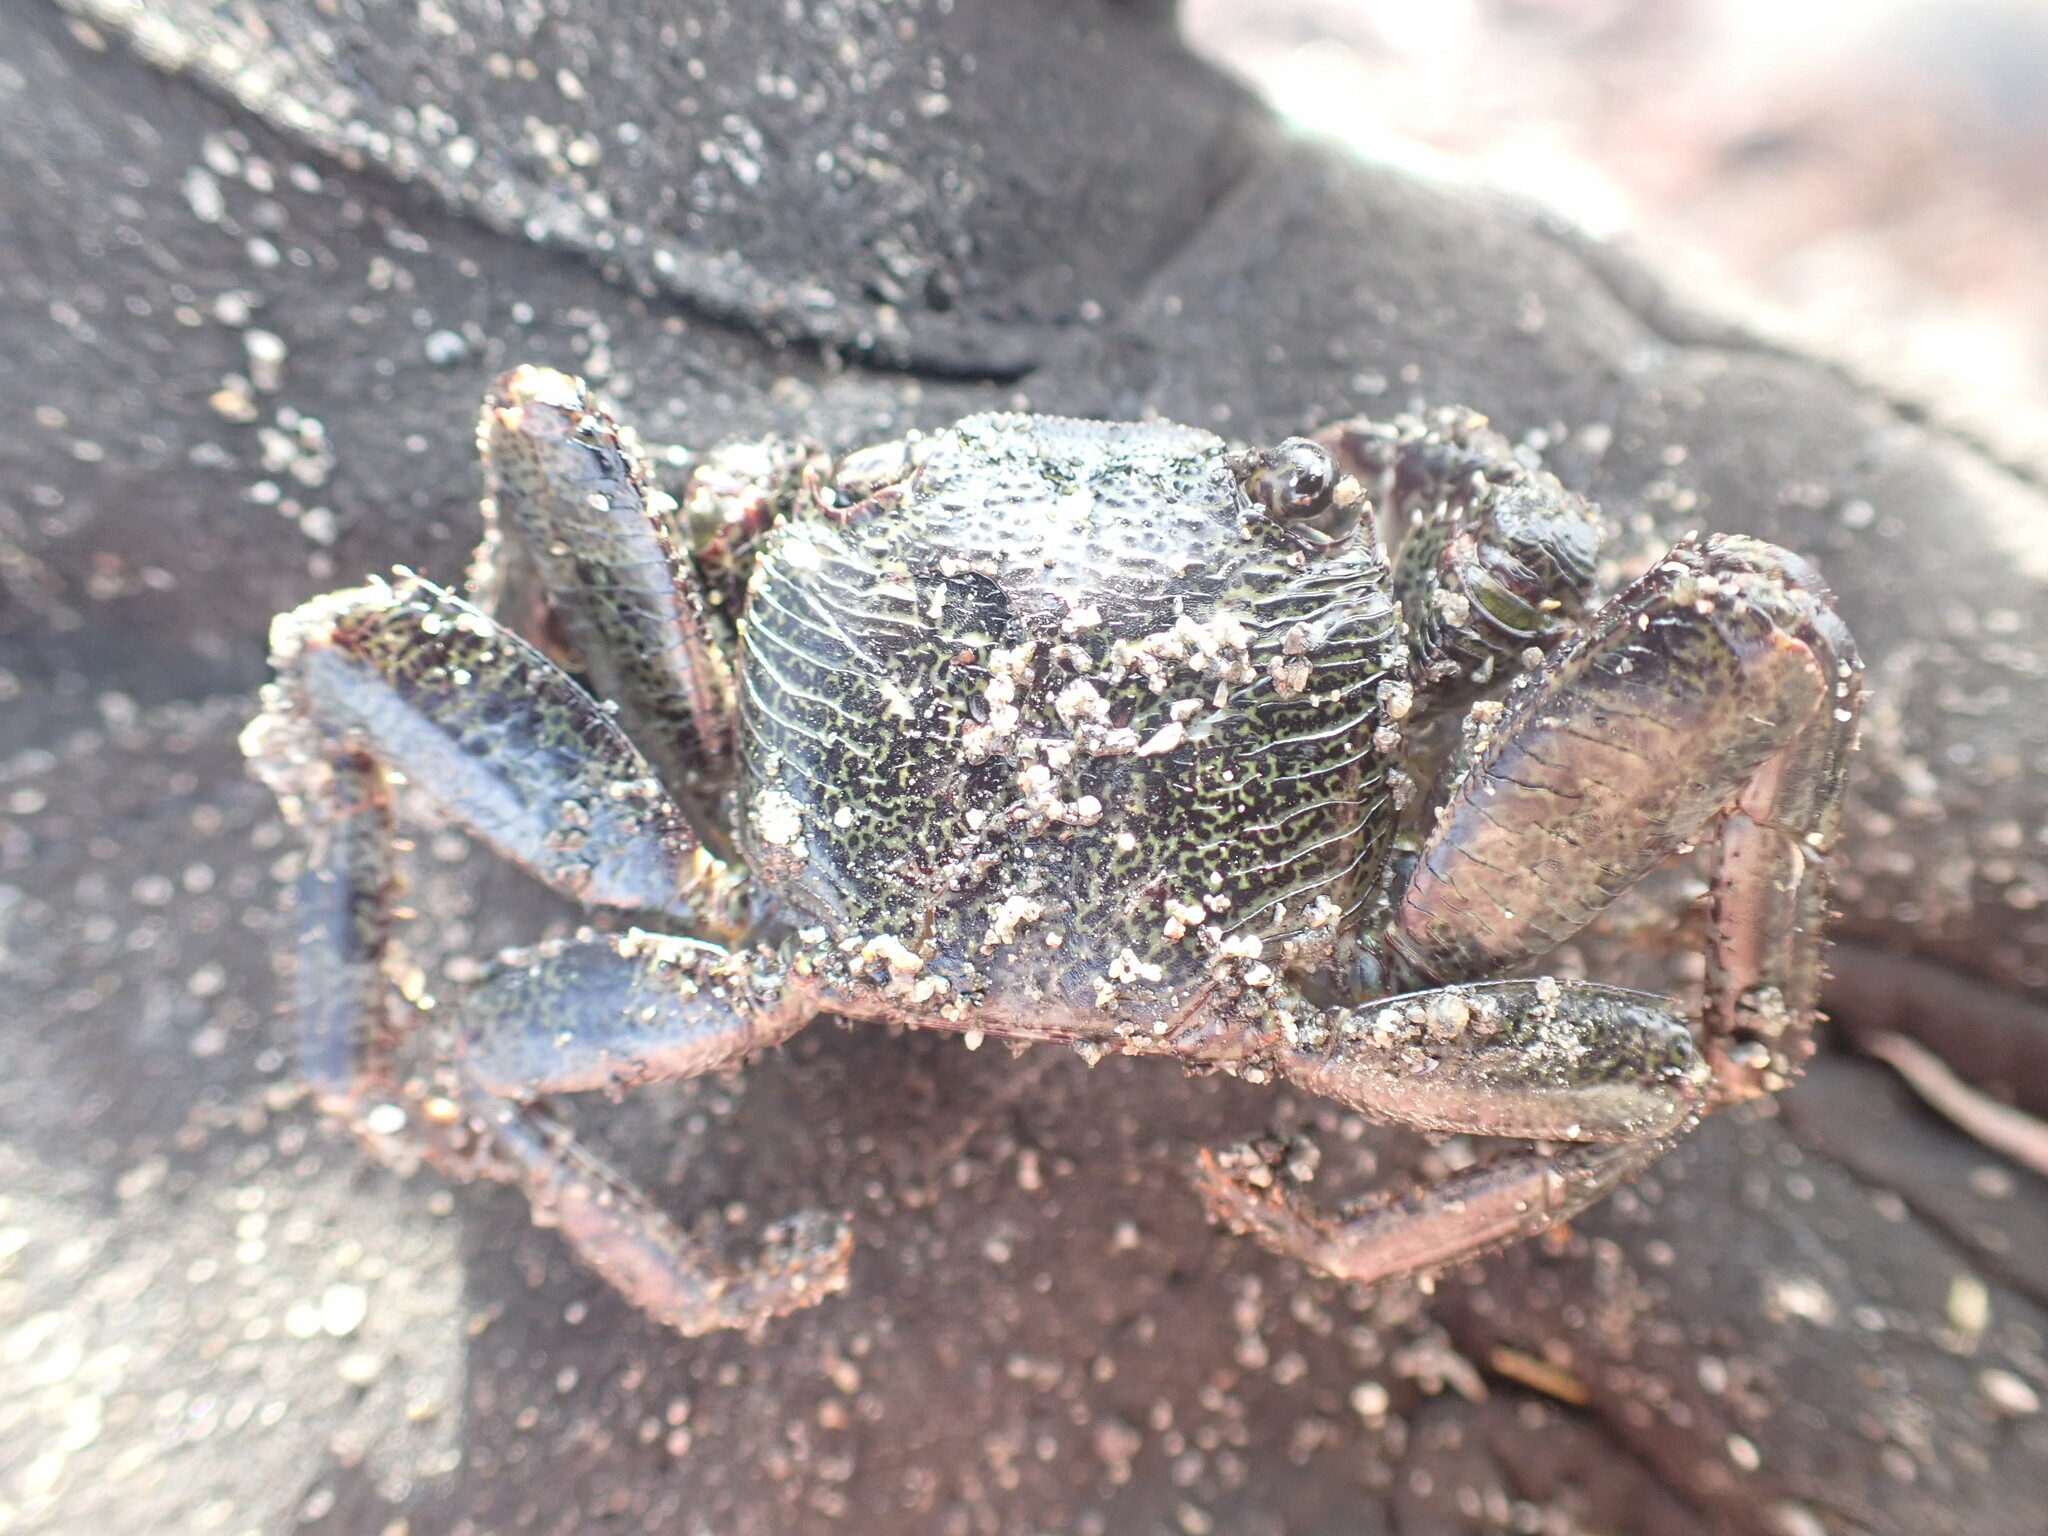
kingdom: Animalia
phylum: Arthropoda
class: Malacostraca
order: Decapoda
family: Grapsidae
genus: Leptograpsus
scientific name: Leptograpsus variegatus
